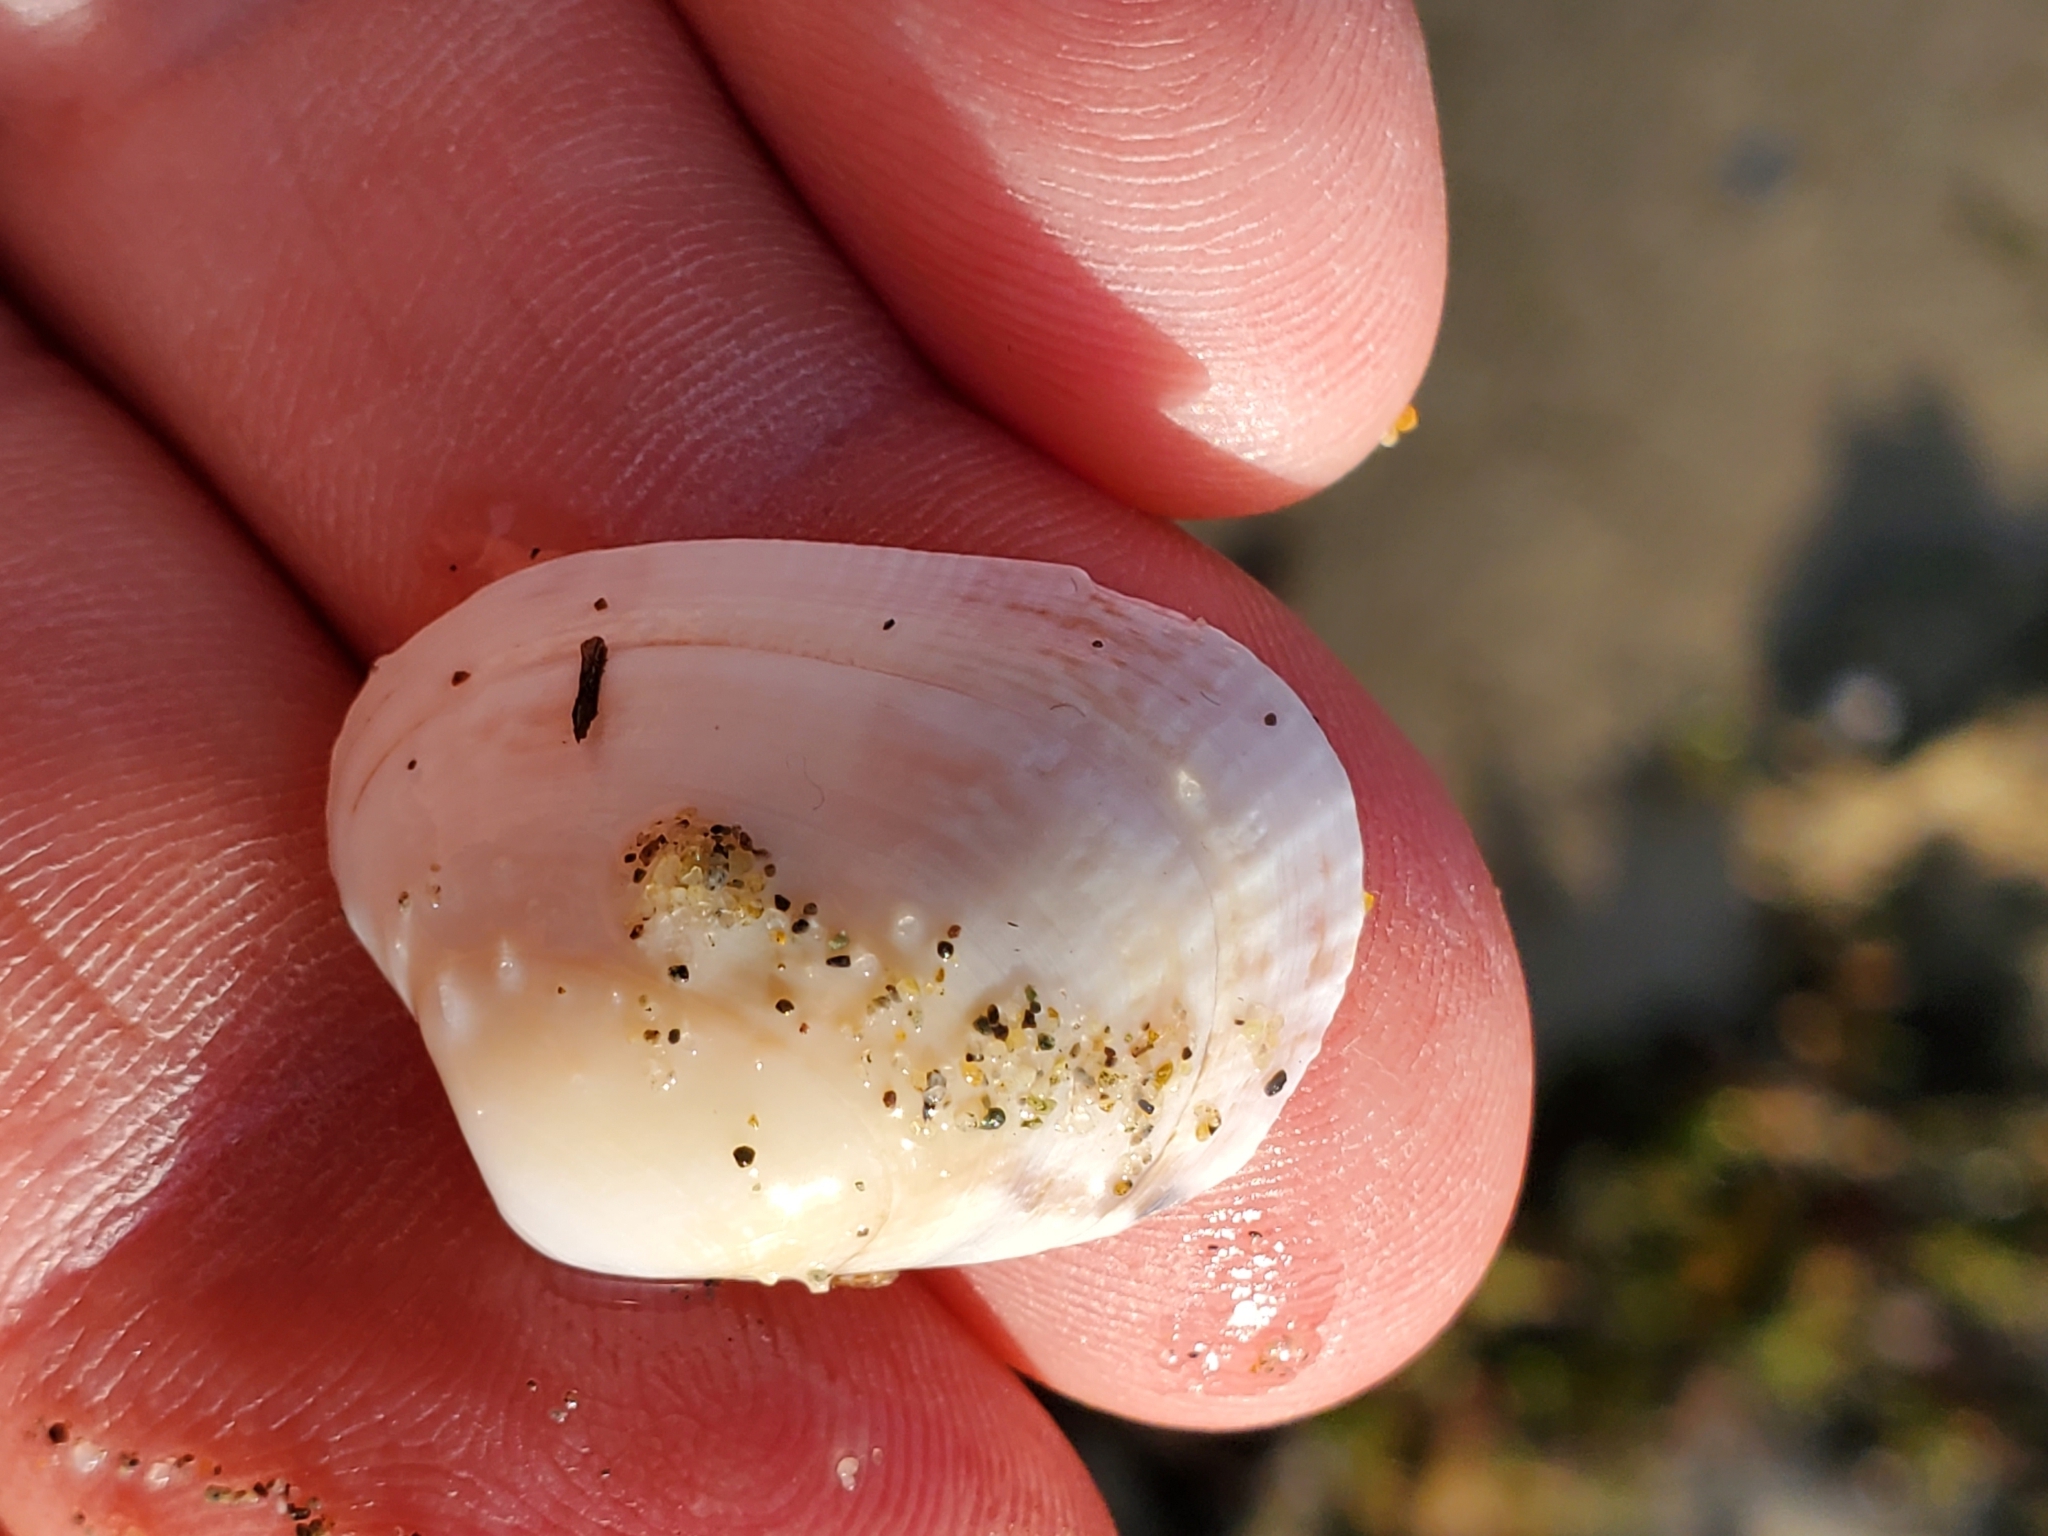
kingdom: Animalia
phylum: Mollusca
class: Bivalvia
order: Venerida
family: Veneridae
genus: Ruditapes
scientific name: Ruditapes philippinarum
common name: Manila clam
